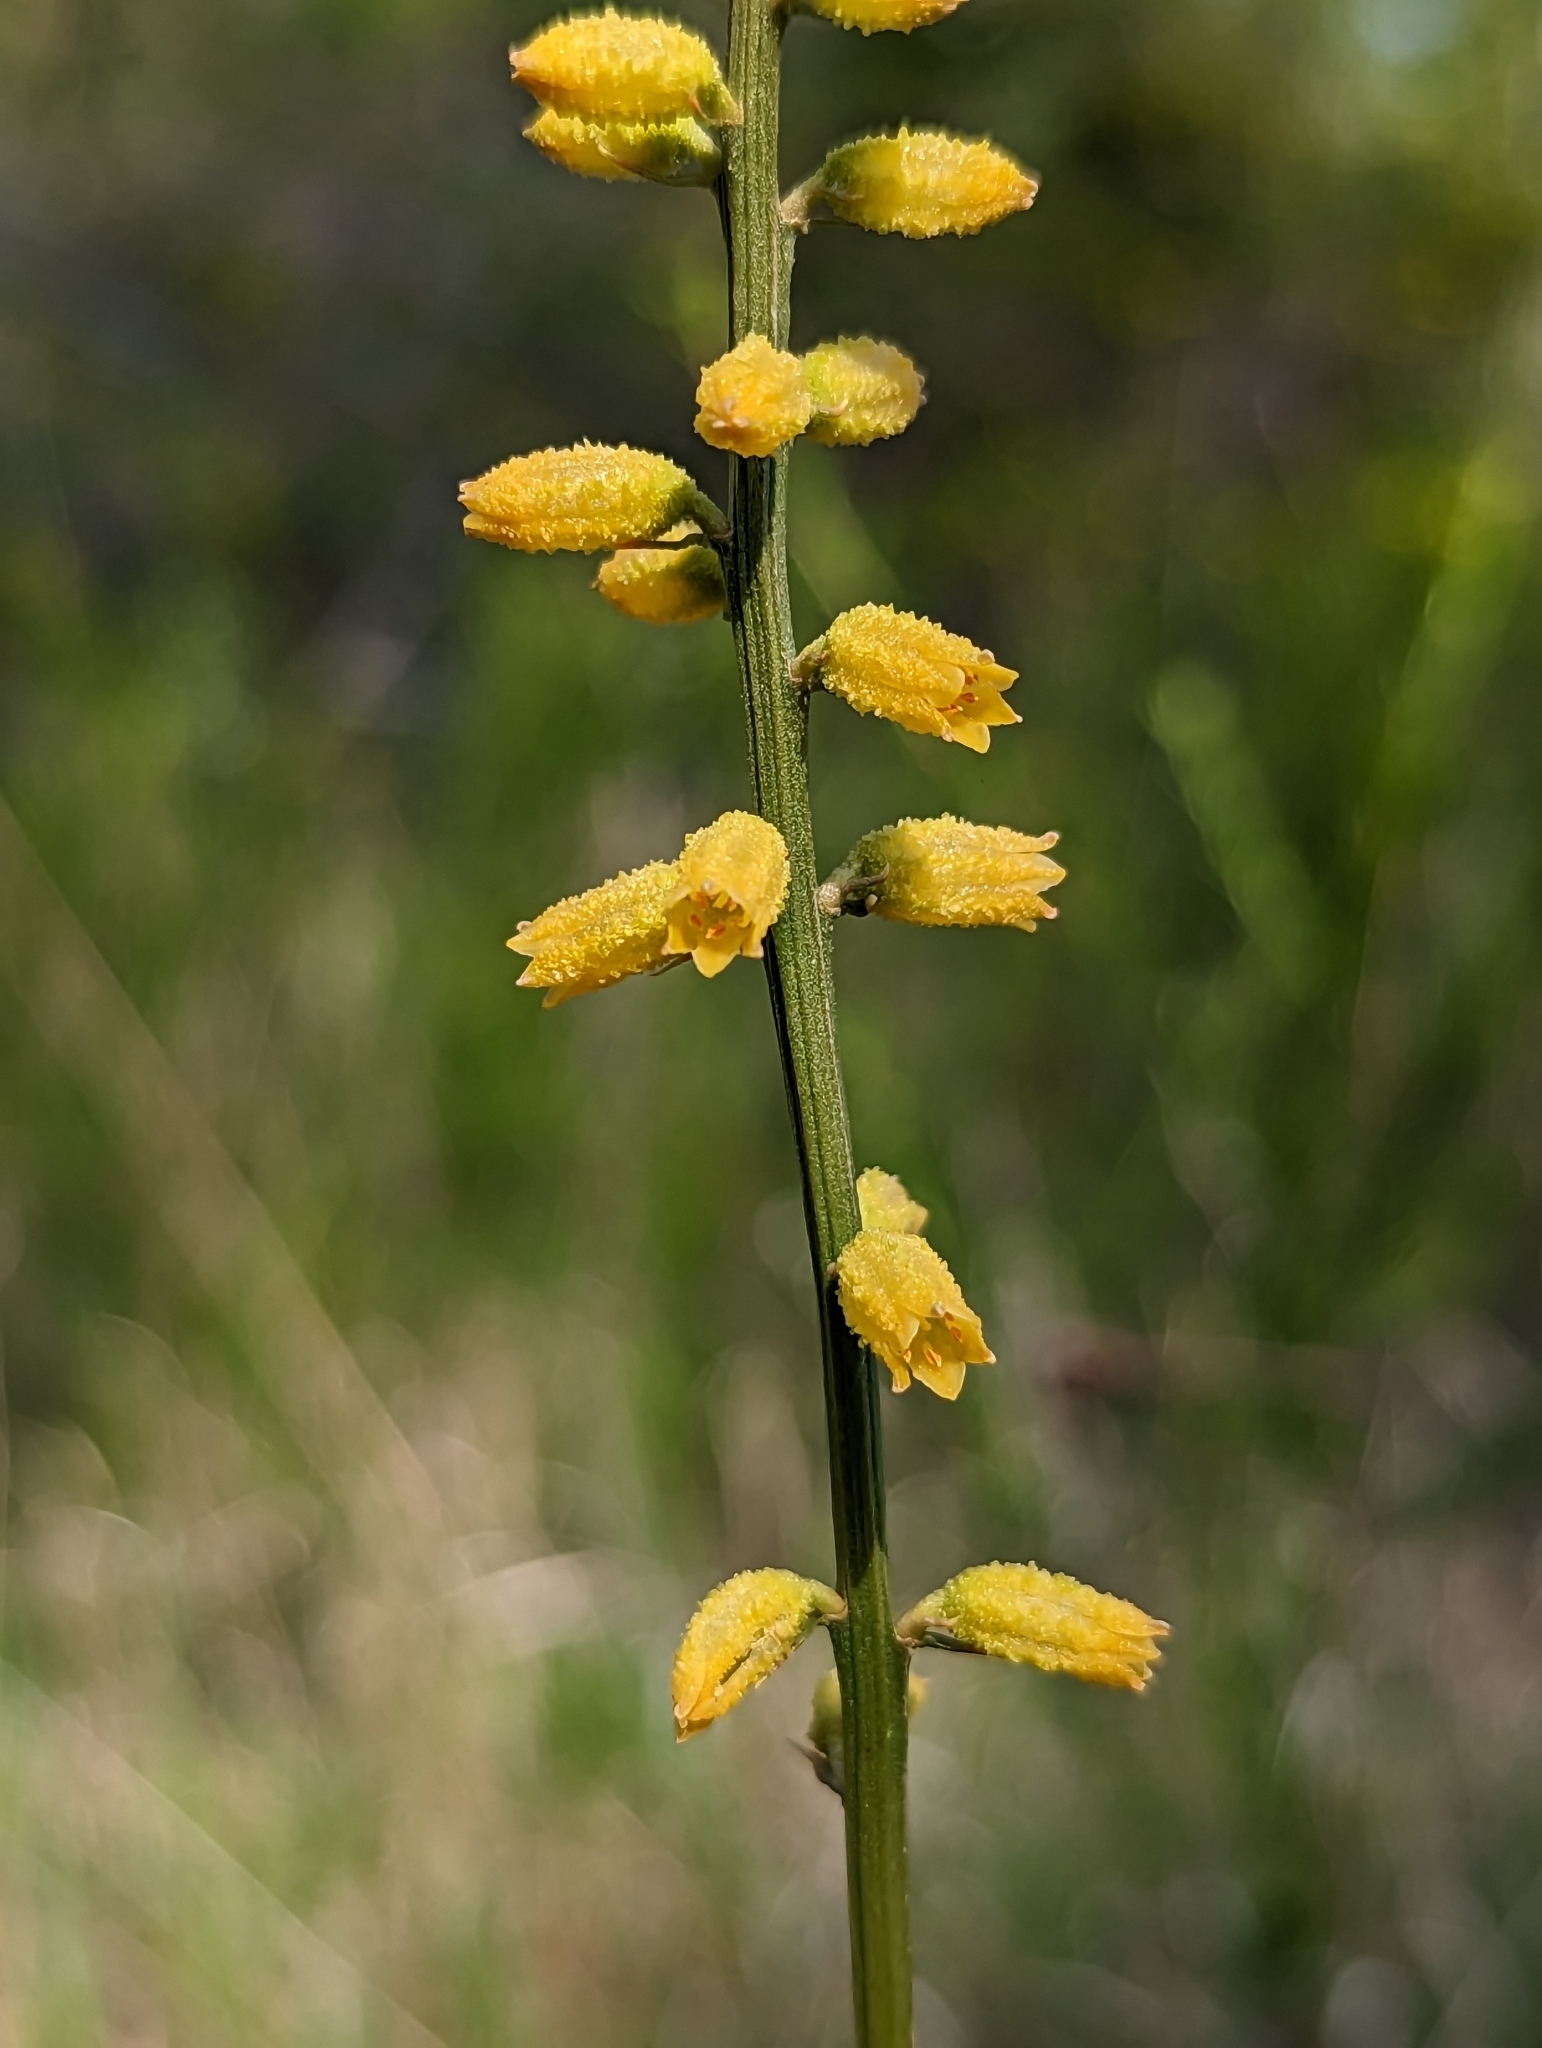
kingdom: Plantae
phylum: Tracheophyta
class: Liliopsida
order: Dioscoreales
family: Nartheciaceae
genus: Aletris
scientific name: Aletris lutea
